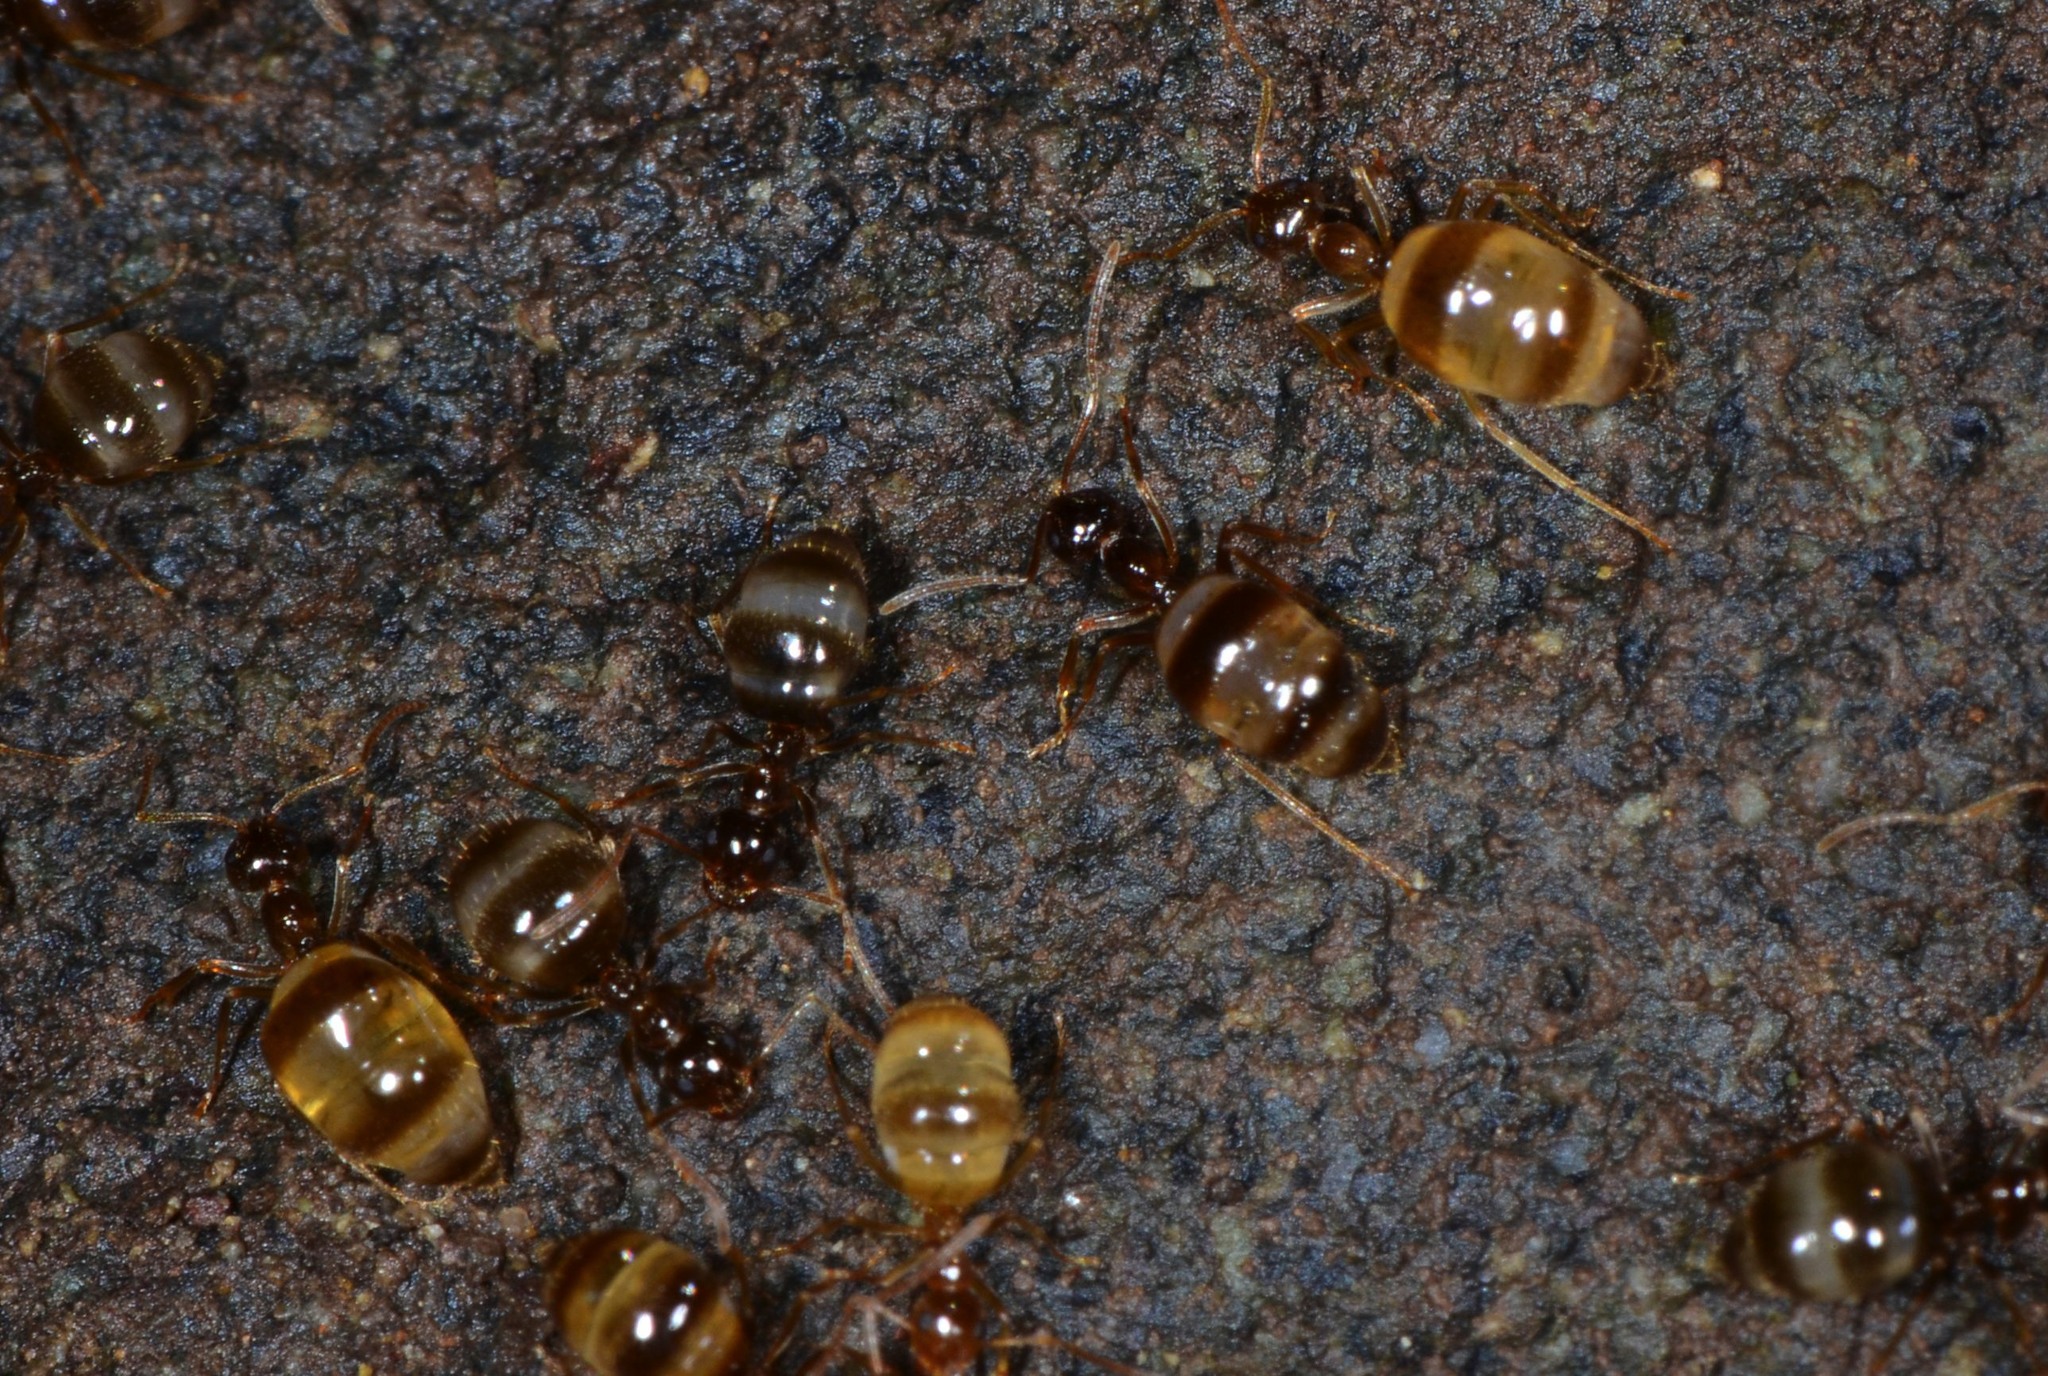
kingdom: Animalia
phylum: Arthropoda
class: Insecta
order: Hymenoptera
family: Formicidae
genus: Prenolepis
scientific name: Prenolepis imparis
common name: Small honey ant
